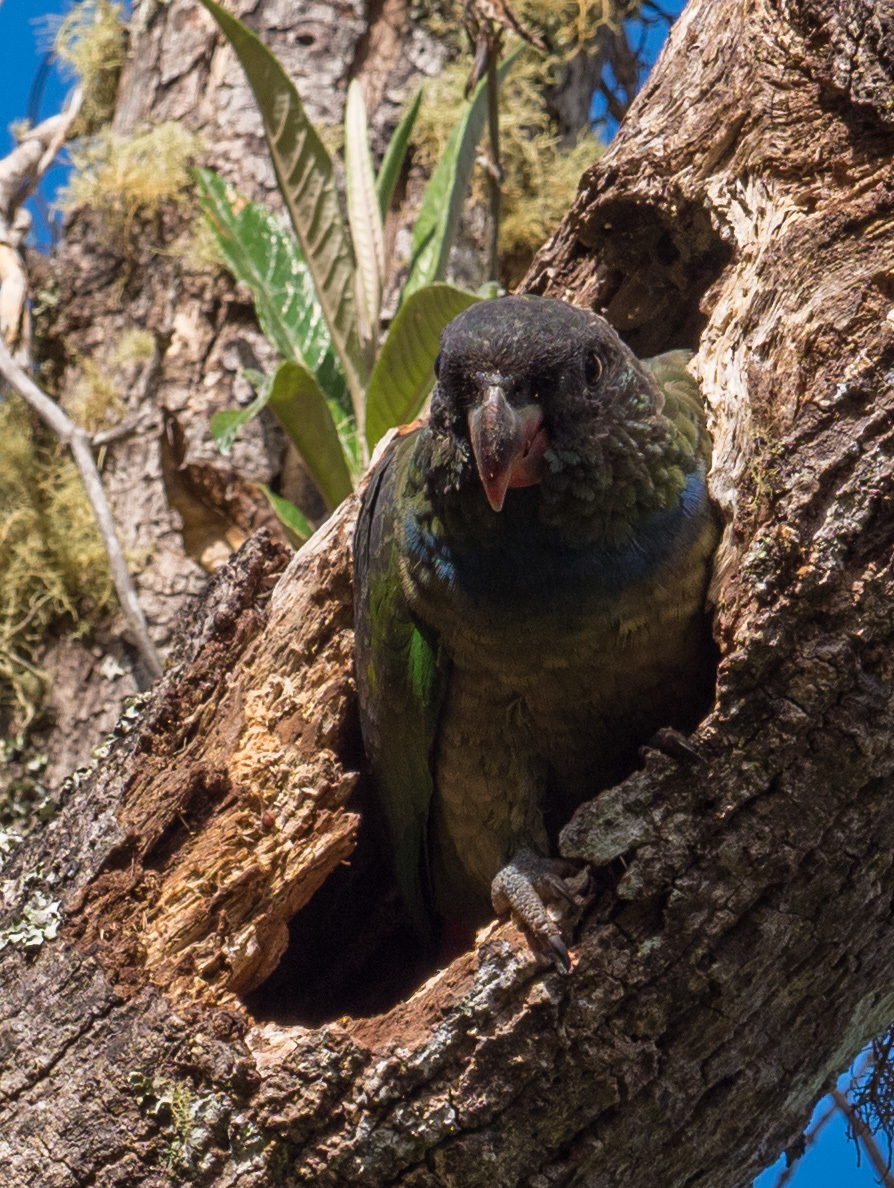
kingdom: Animalia
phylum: Chordata
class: Aves
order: Psittaciformes
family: Psittacidae
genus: Pionus
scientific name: Pionus sordidus
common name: Red-billed parrot
